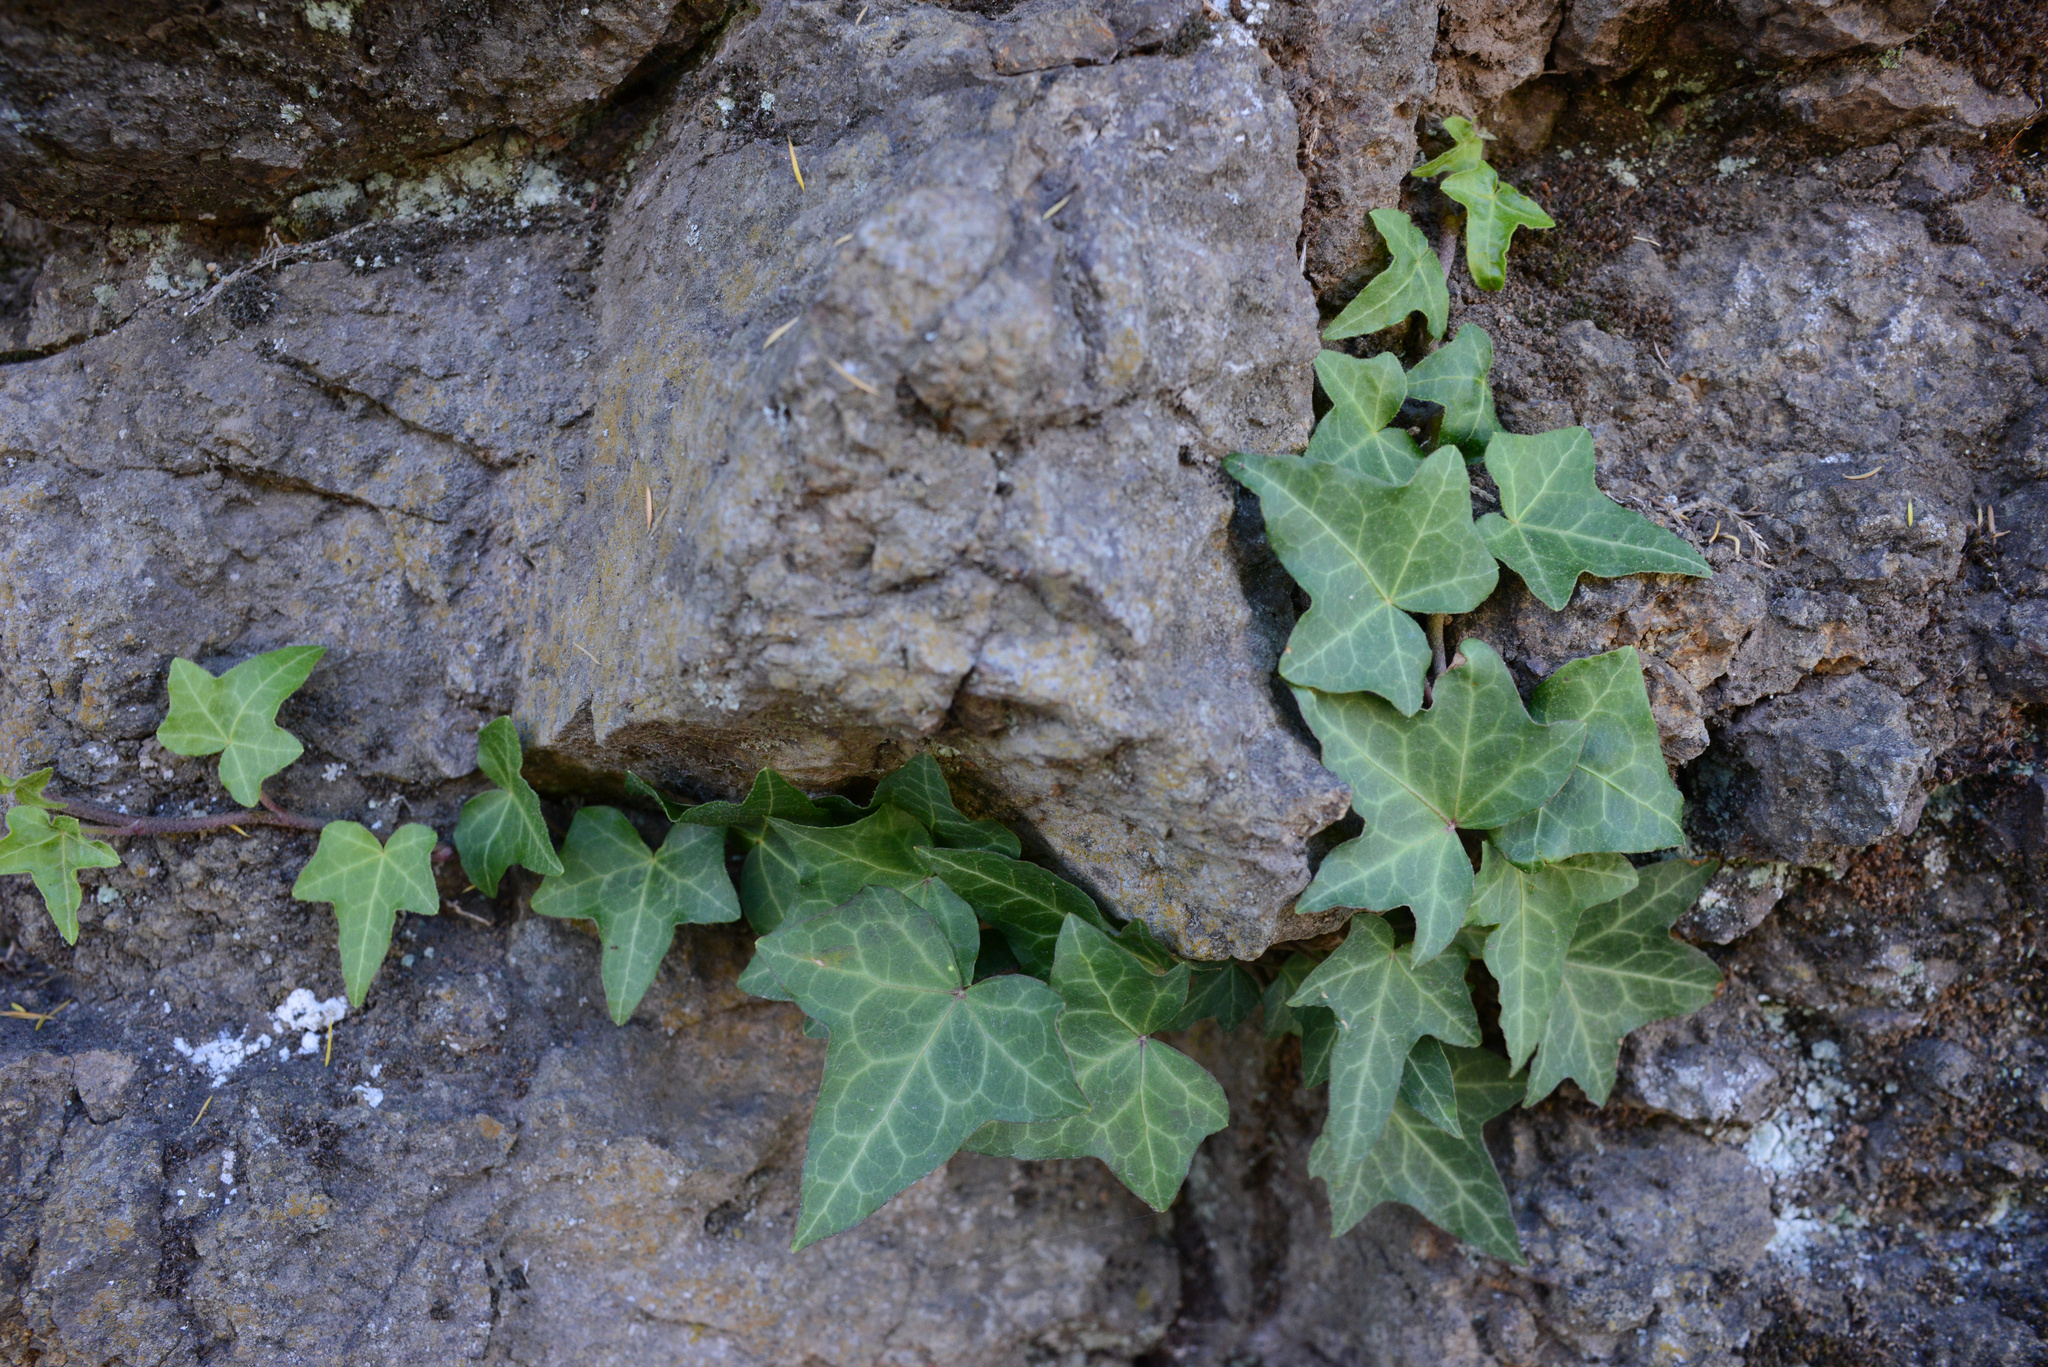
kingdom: Plantae
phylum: Tracheophyta
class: Magnoliopsida
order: Apiales
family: Araliaceae
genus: Hedera
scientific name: Hedera helix
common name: Ivy
